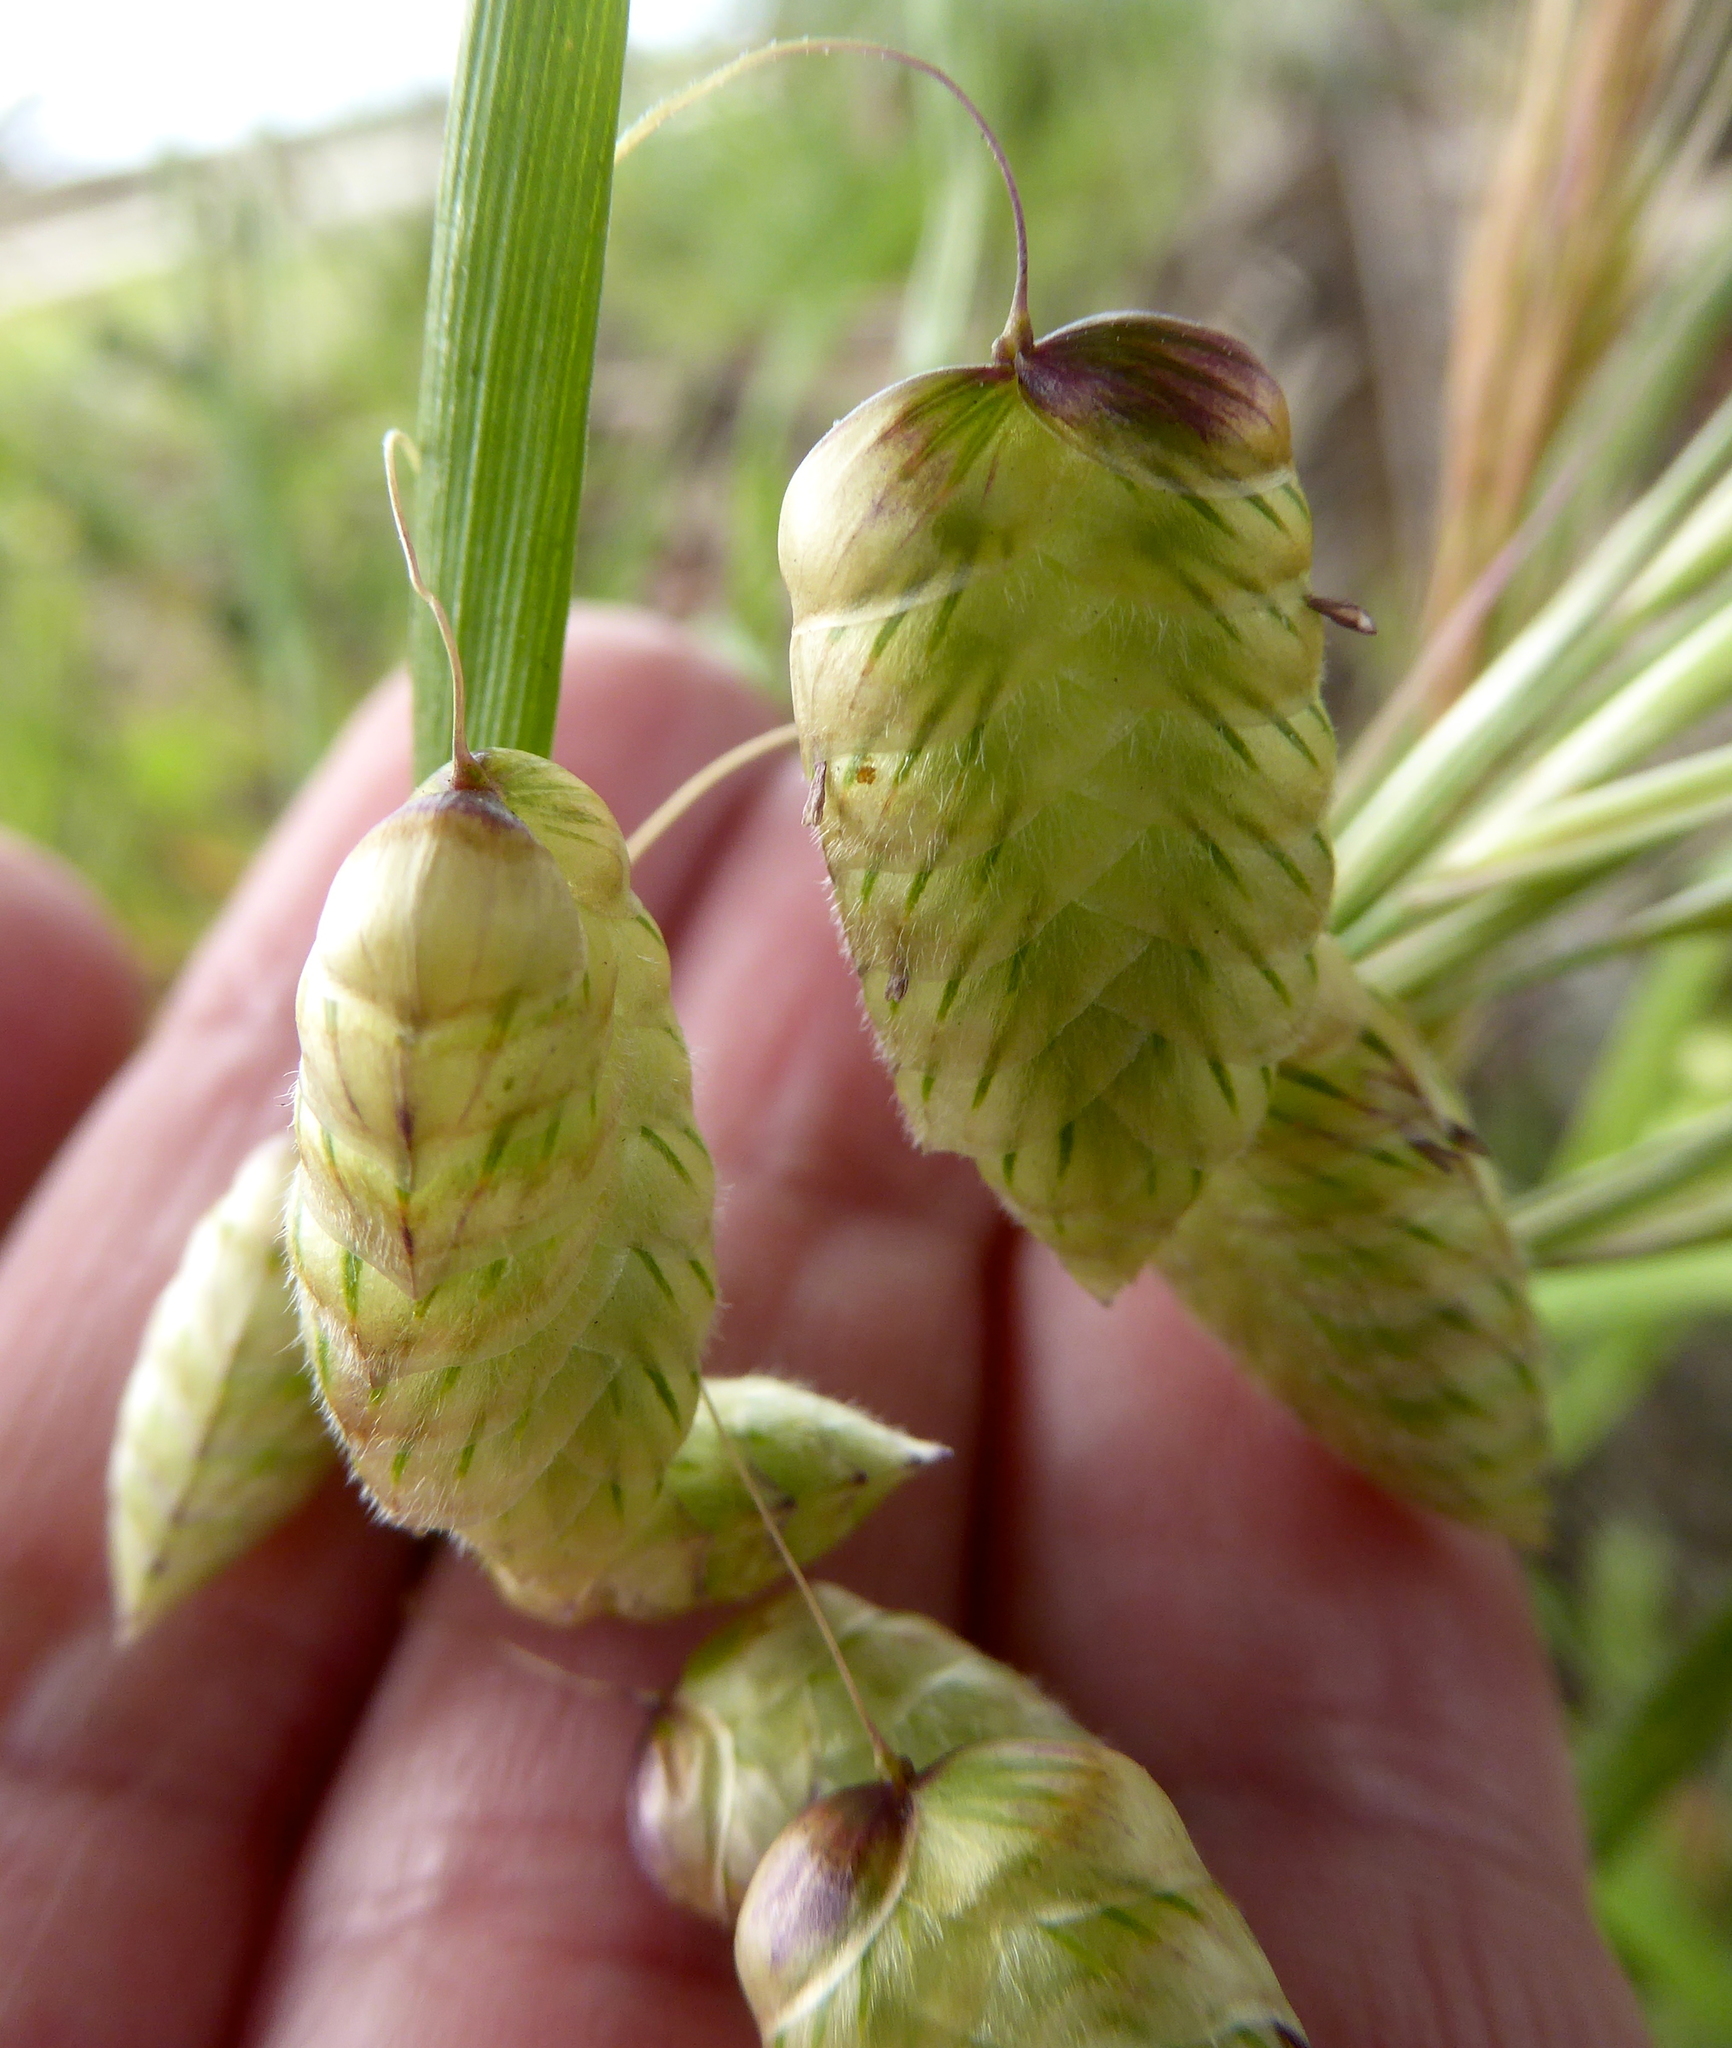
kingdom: Plantae
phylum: Tracheophyta
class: Liliopsida
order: Poales
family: Poaceae
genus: Briza
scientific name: Briza maxima
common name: Big quakinggrass
